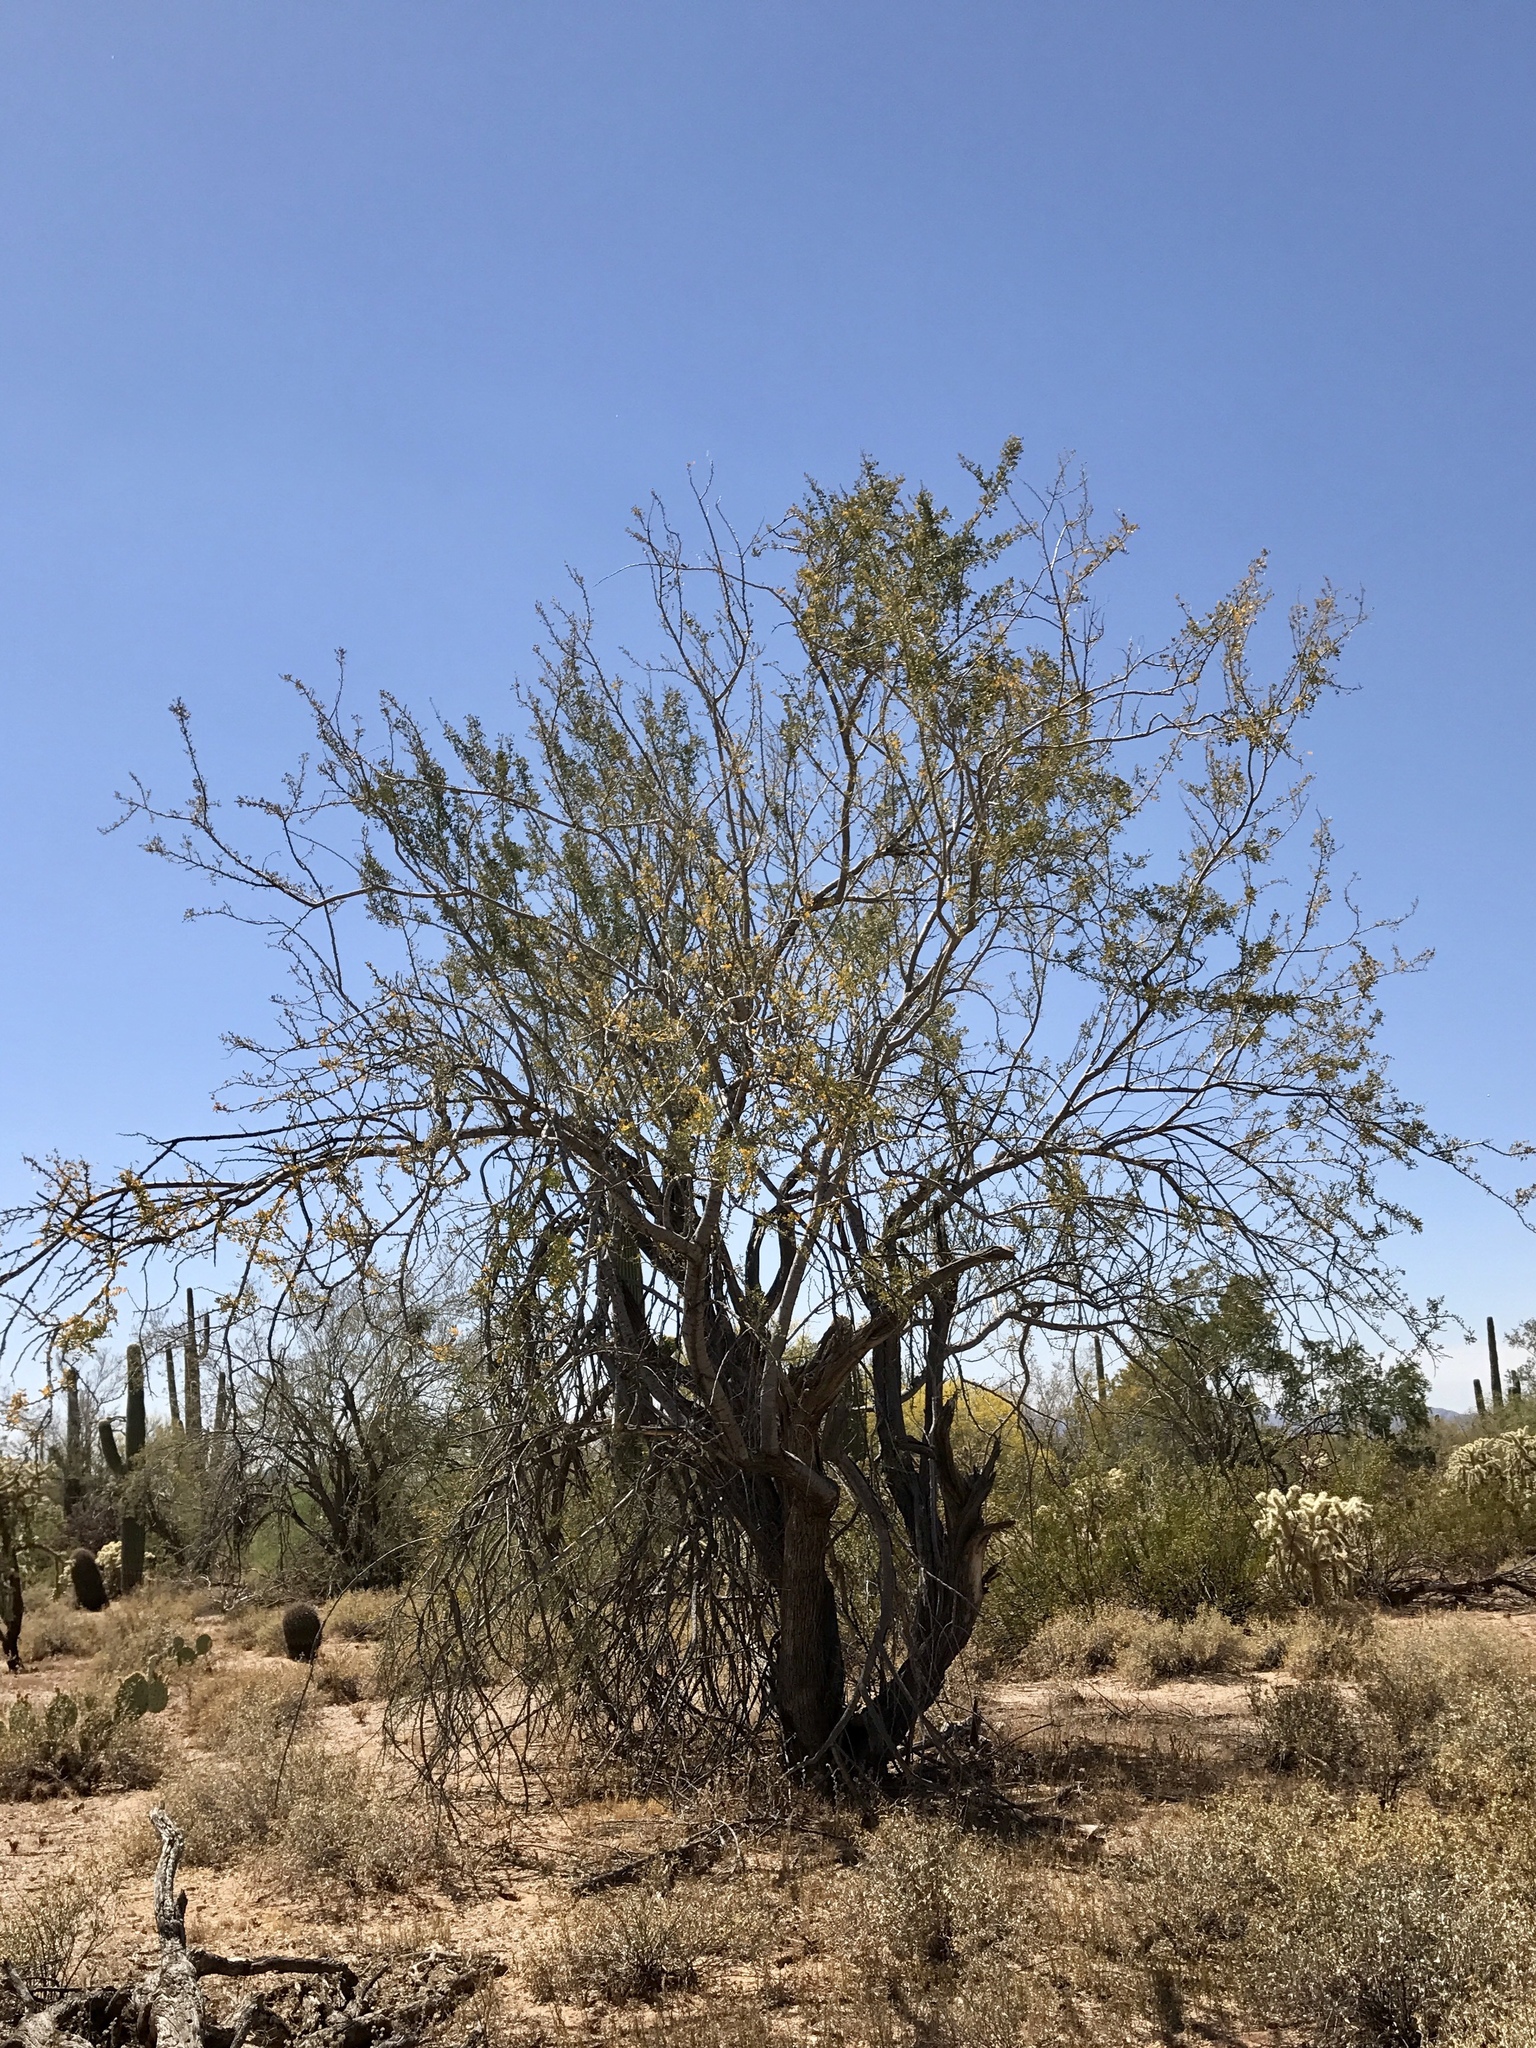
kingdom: Plantae
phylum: Tracheophyta
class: Magnoliopsida
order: Fabales
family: Fabaceae
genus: Olneya
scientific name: Olneya tesota
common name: Desert ironwood
